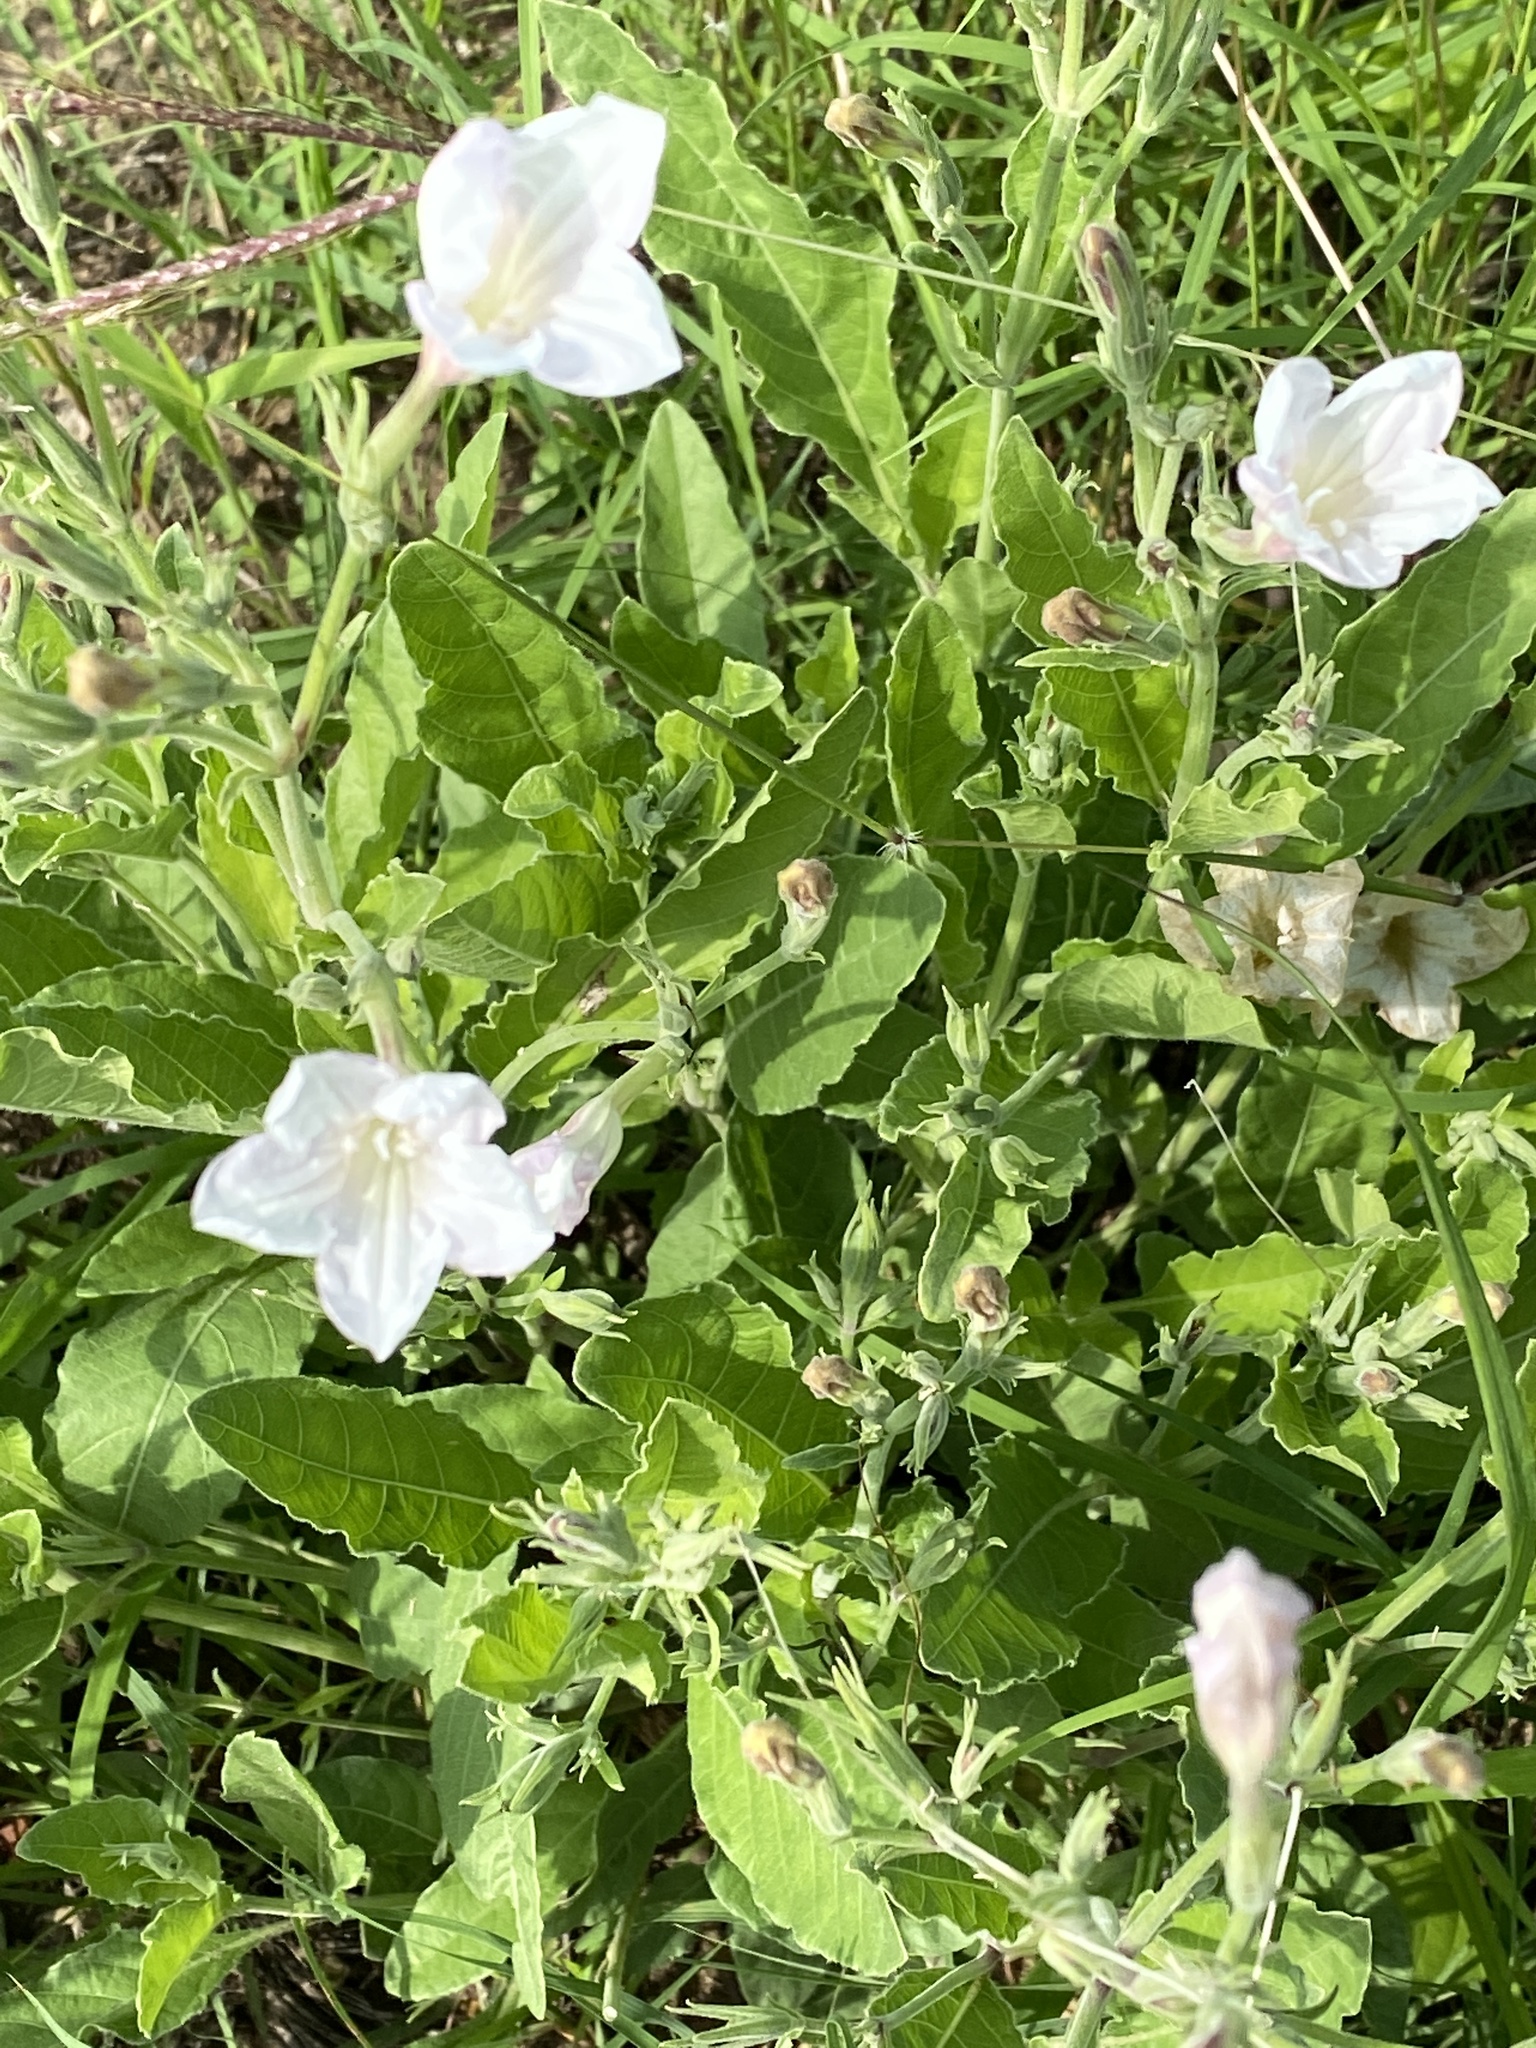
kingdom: Plantae
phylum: Tracheophyta
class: Magnoliopsida
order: Lamiales
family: Acanthaceae
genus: Ruellia
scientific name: Ruellia metziae
